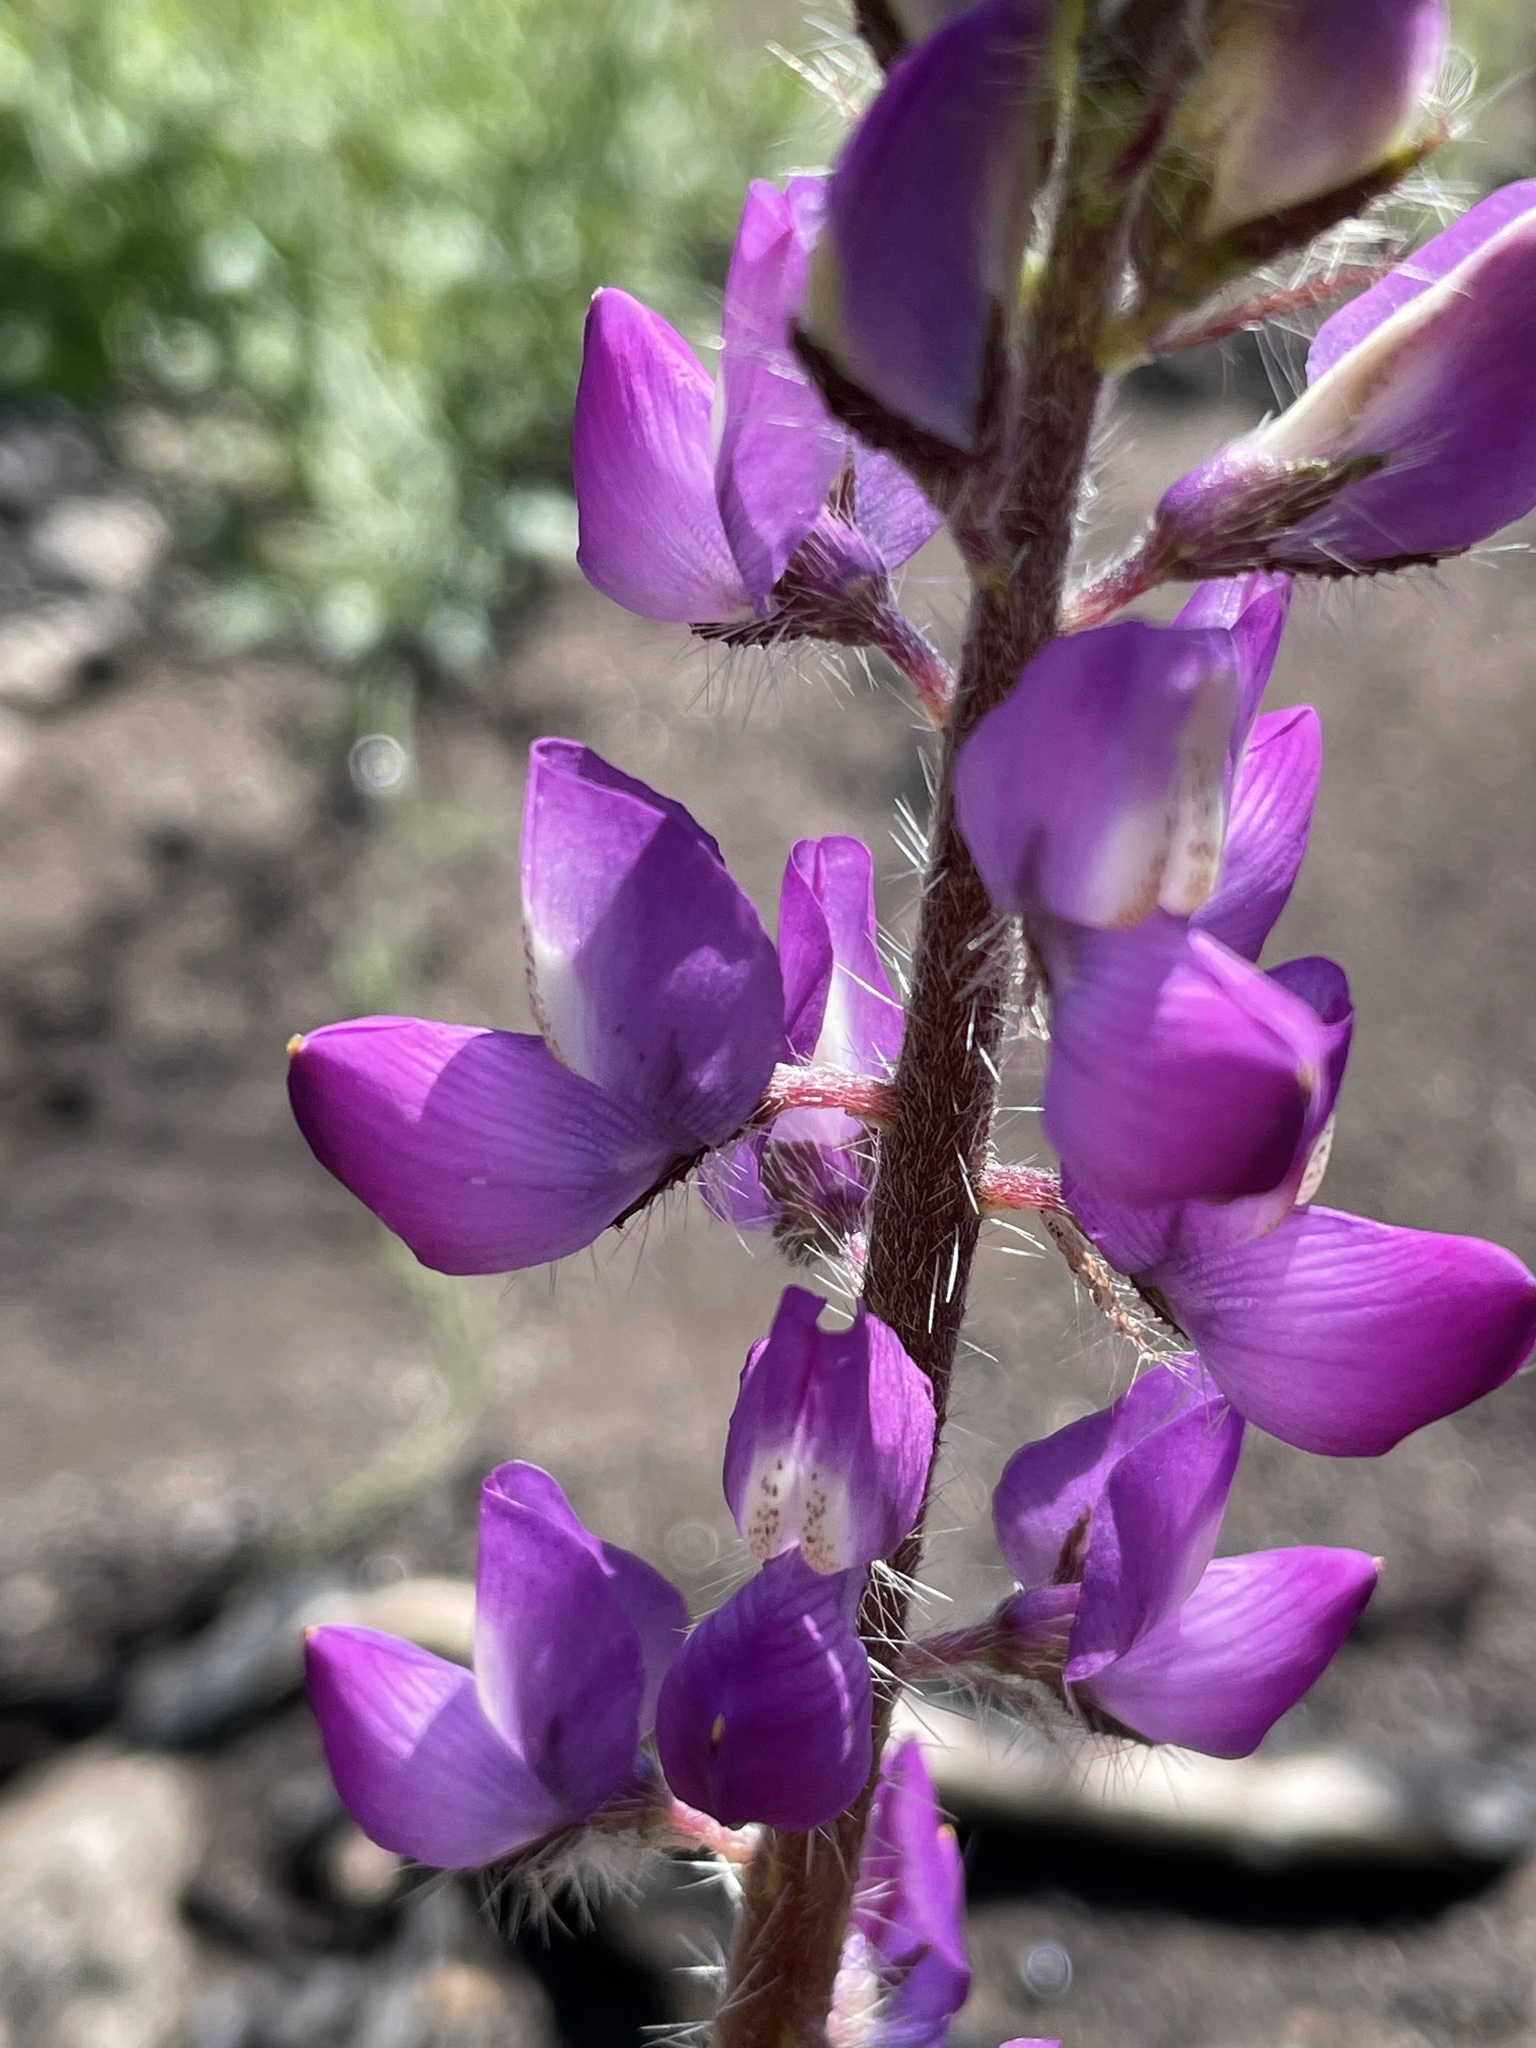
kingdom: Plantae
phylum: Tracheophyta
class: Magnoliopsida
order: Fabales
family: Fabaceae
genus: Lupinus
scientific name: Lupinus hirsutissimus
